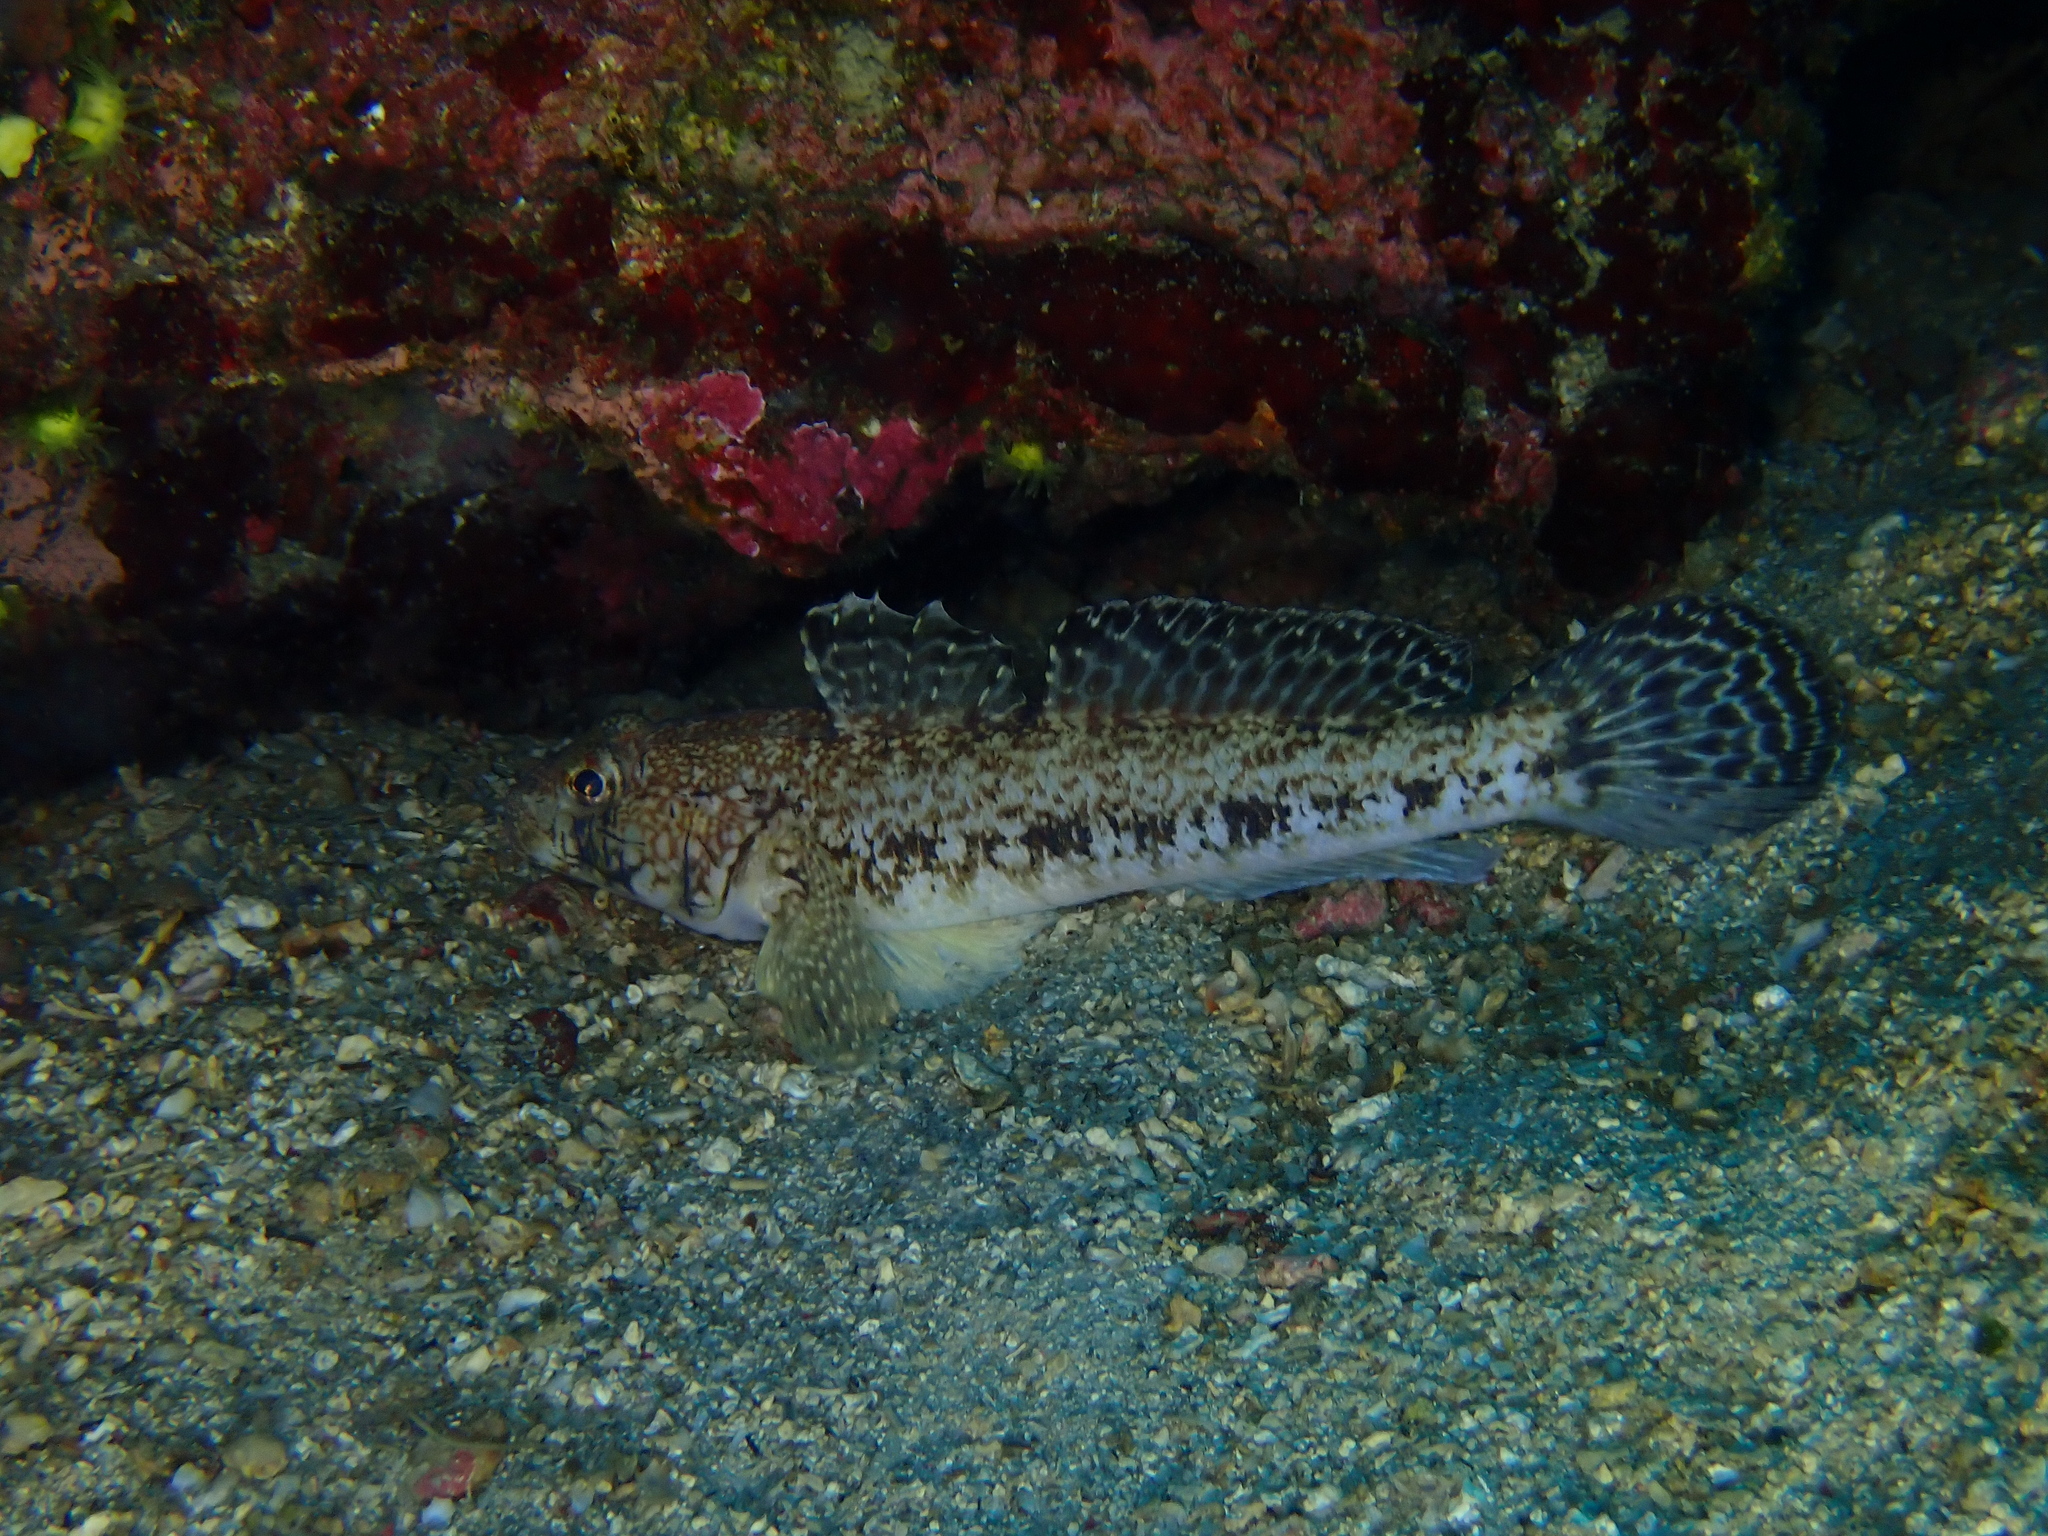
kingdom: Animalia
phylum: Chordata
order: Perciformes
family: Gobiidae
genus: Gobius
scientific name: Gobius geniporus
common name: Slender goby
